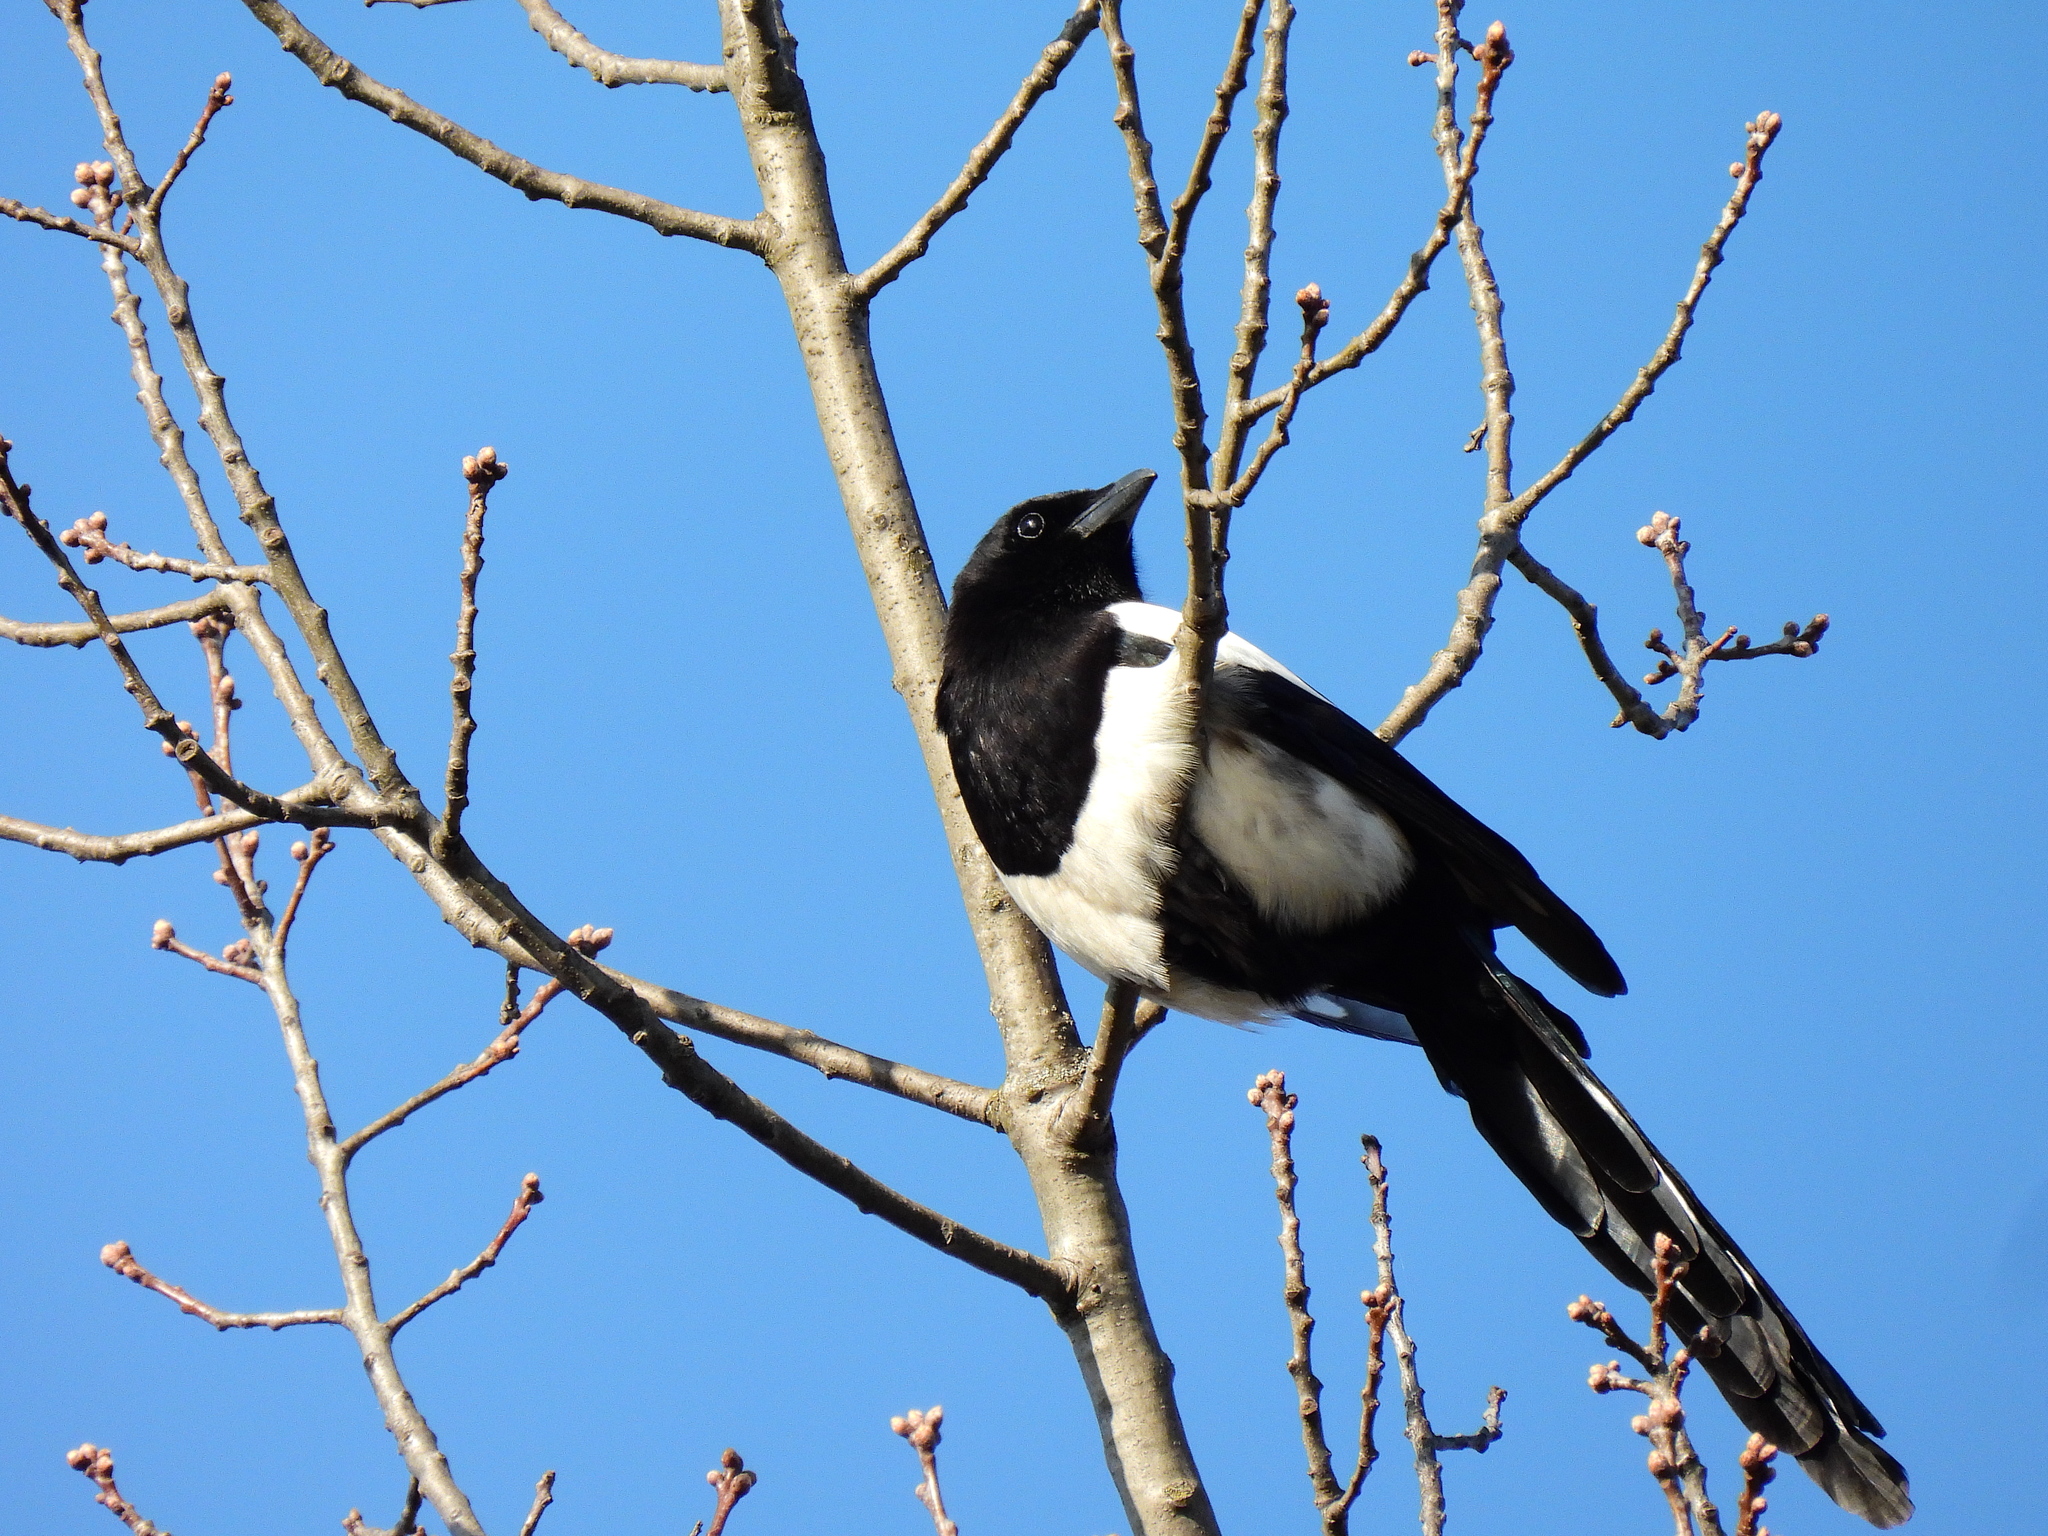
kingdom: Animalia
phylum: Chordata
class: Aves
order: Passeriformes
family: Corvidae
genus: Pica
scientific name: Pica pica
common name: Eurasian magpie
